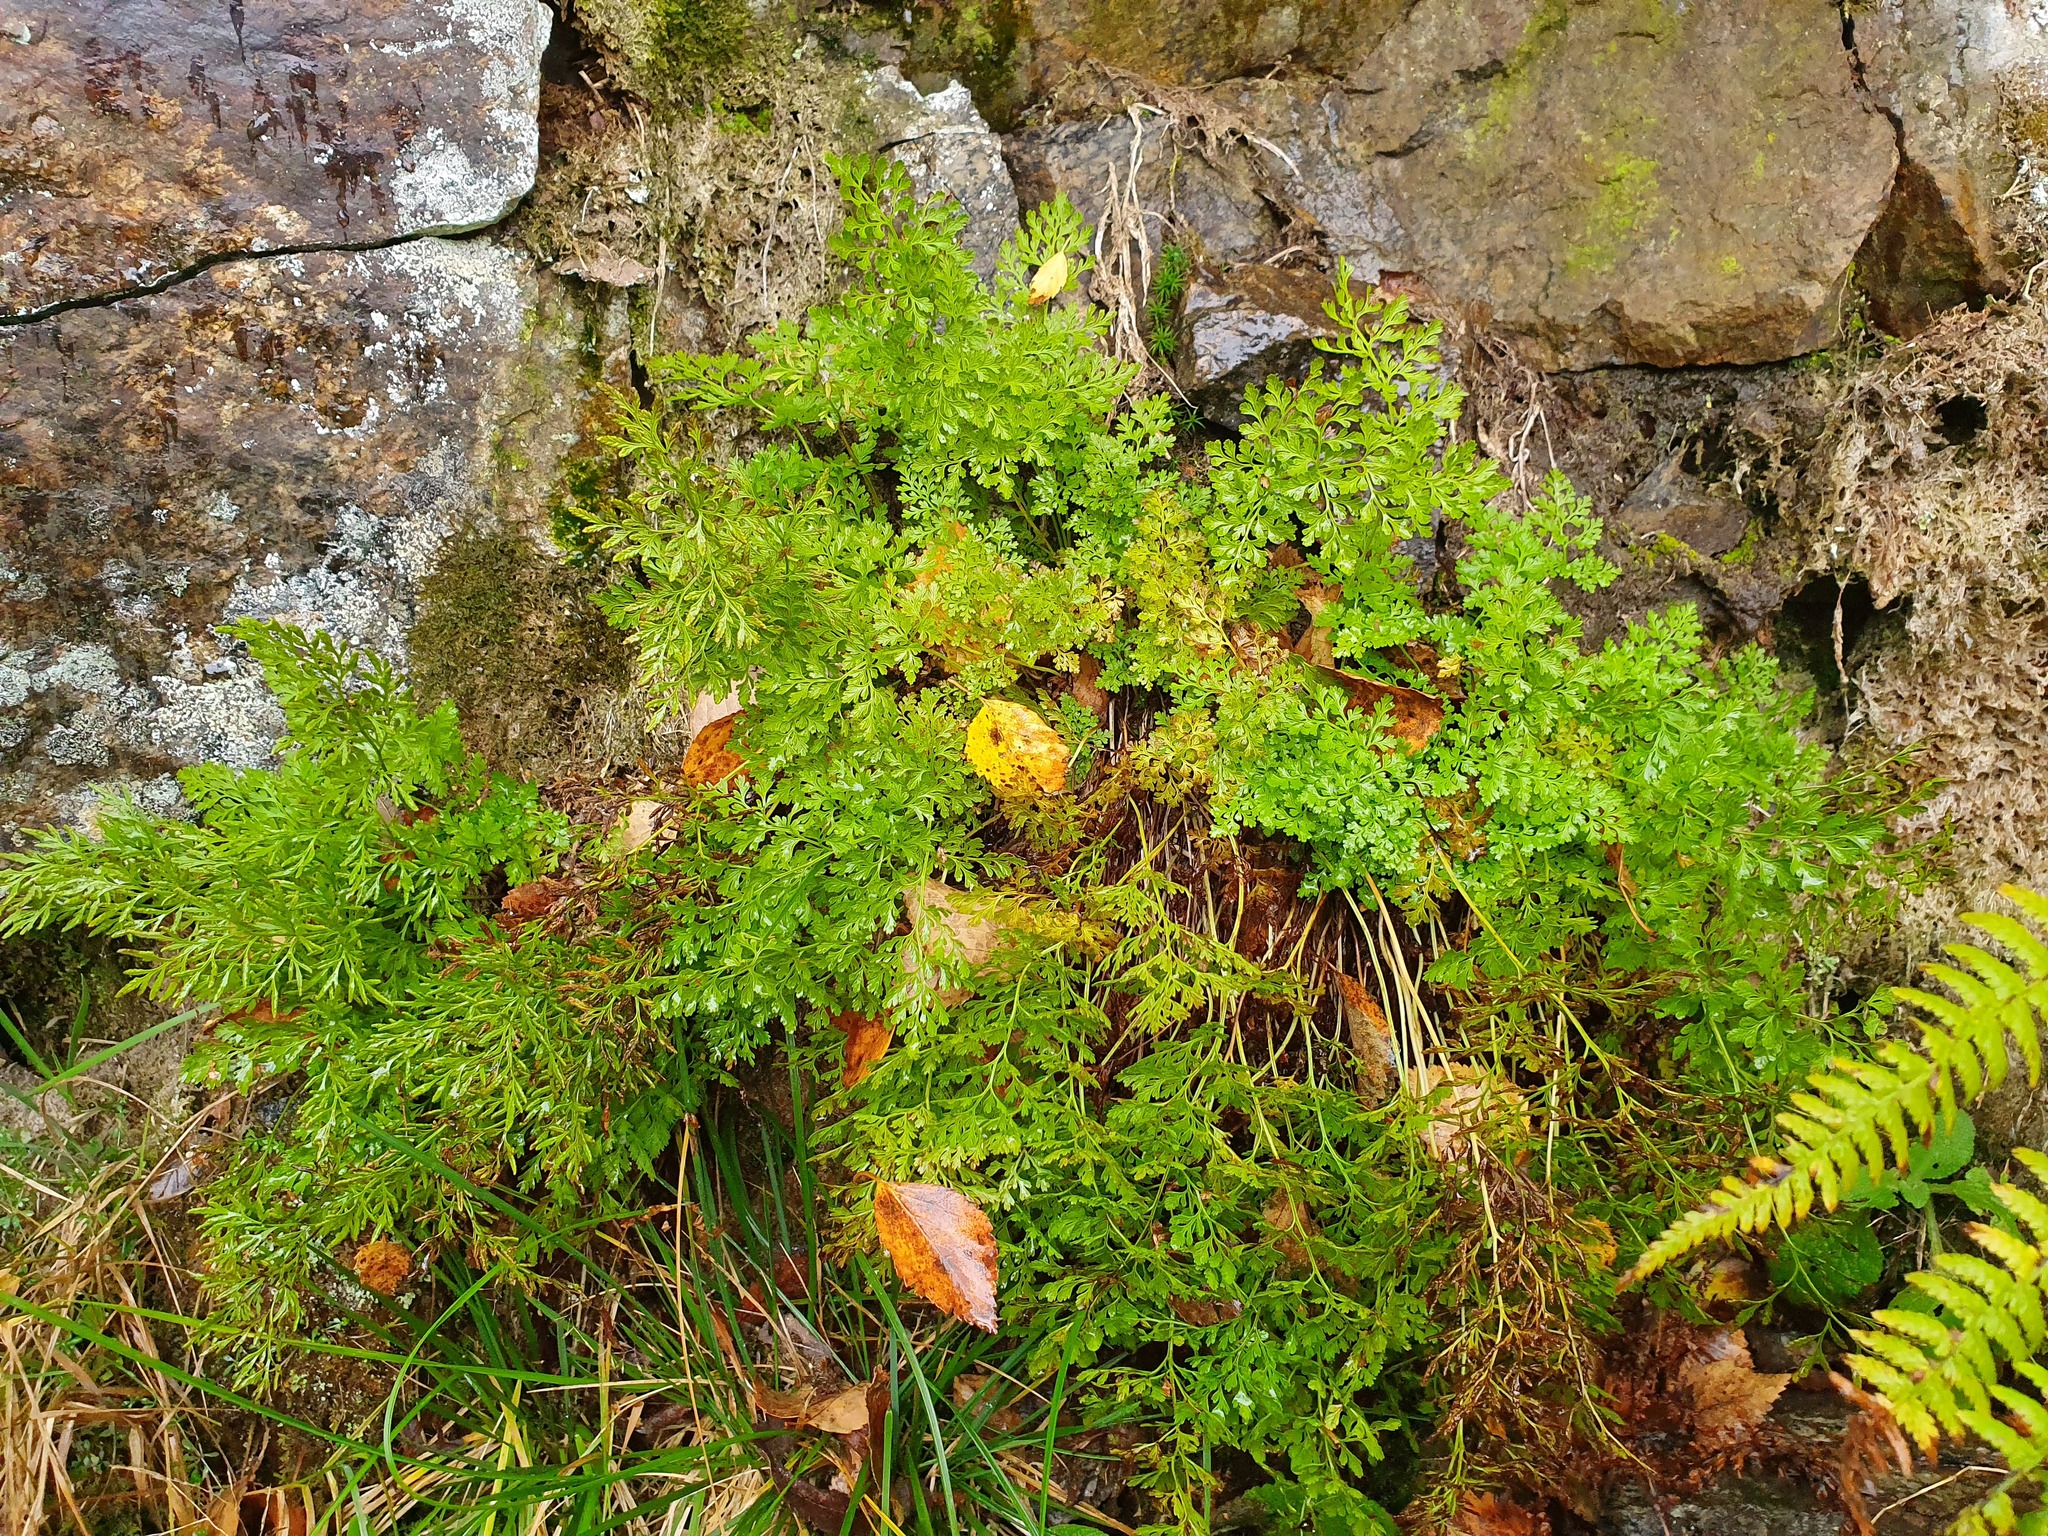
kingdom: Plantae
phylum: Tracheophyta
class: Polypodiopsida
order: Polypodiales
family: Pteridaceae
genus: Cryptogramma
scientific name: Cryptogramma crispa
